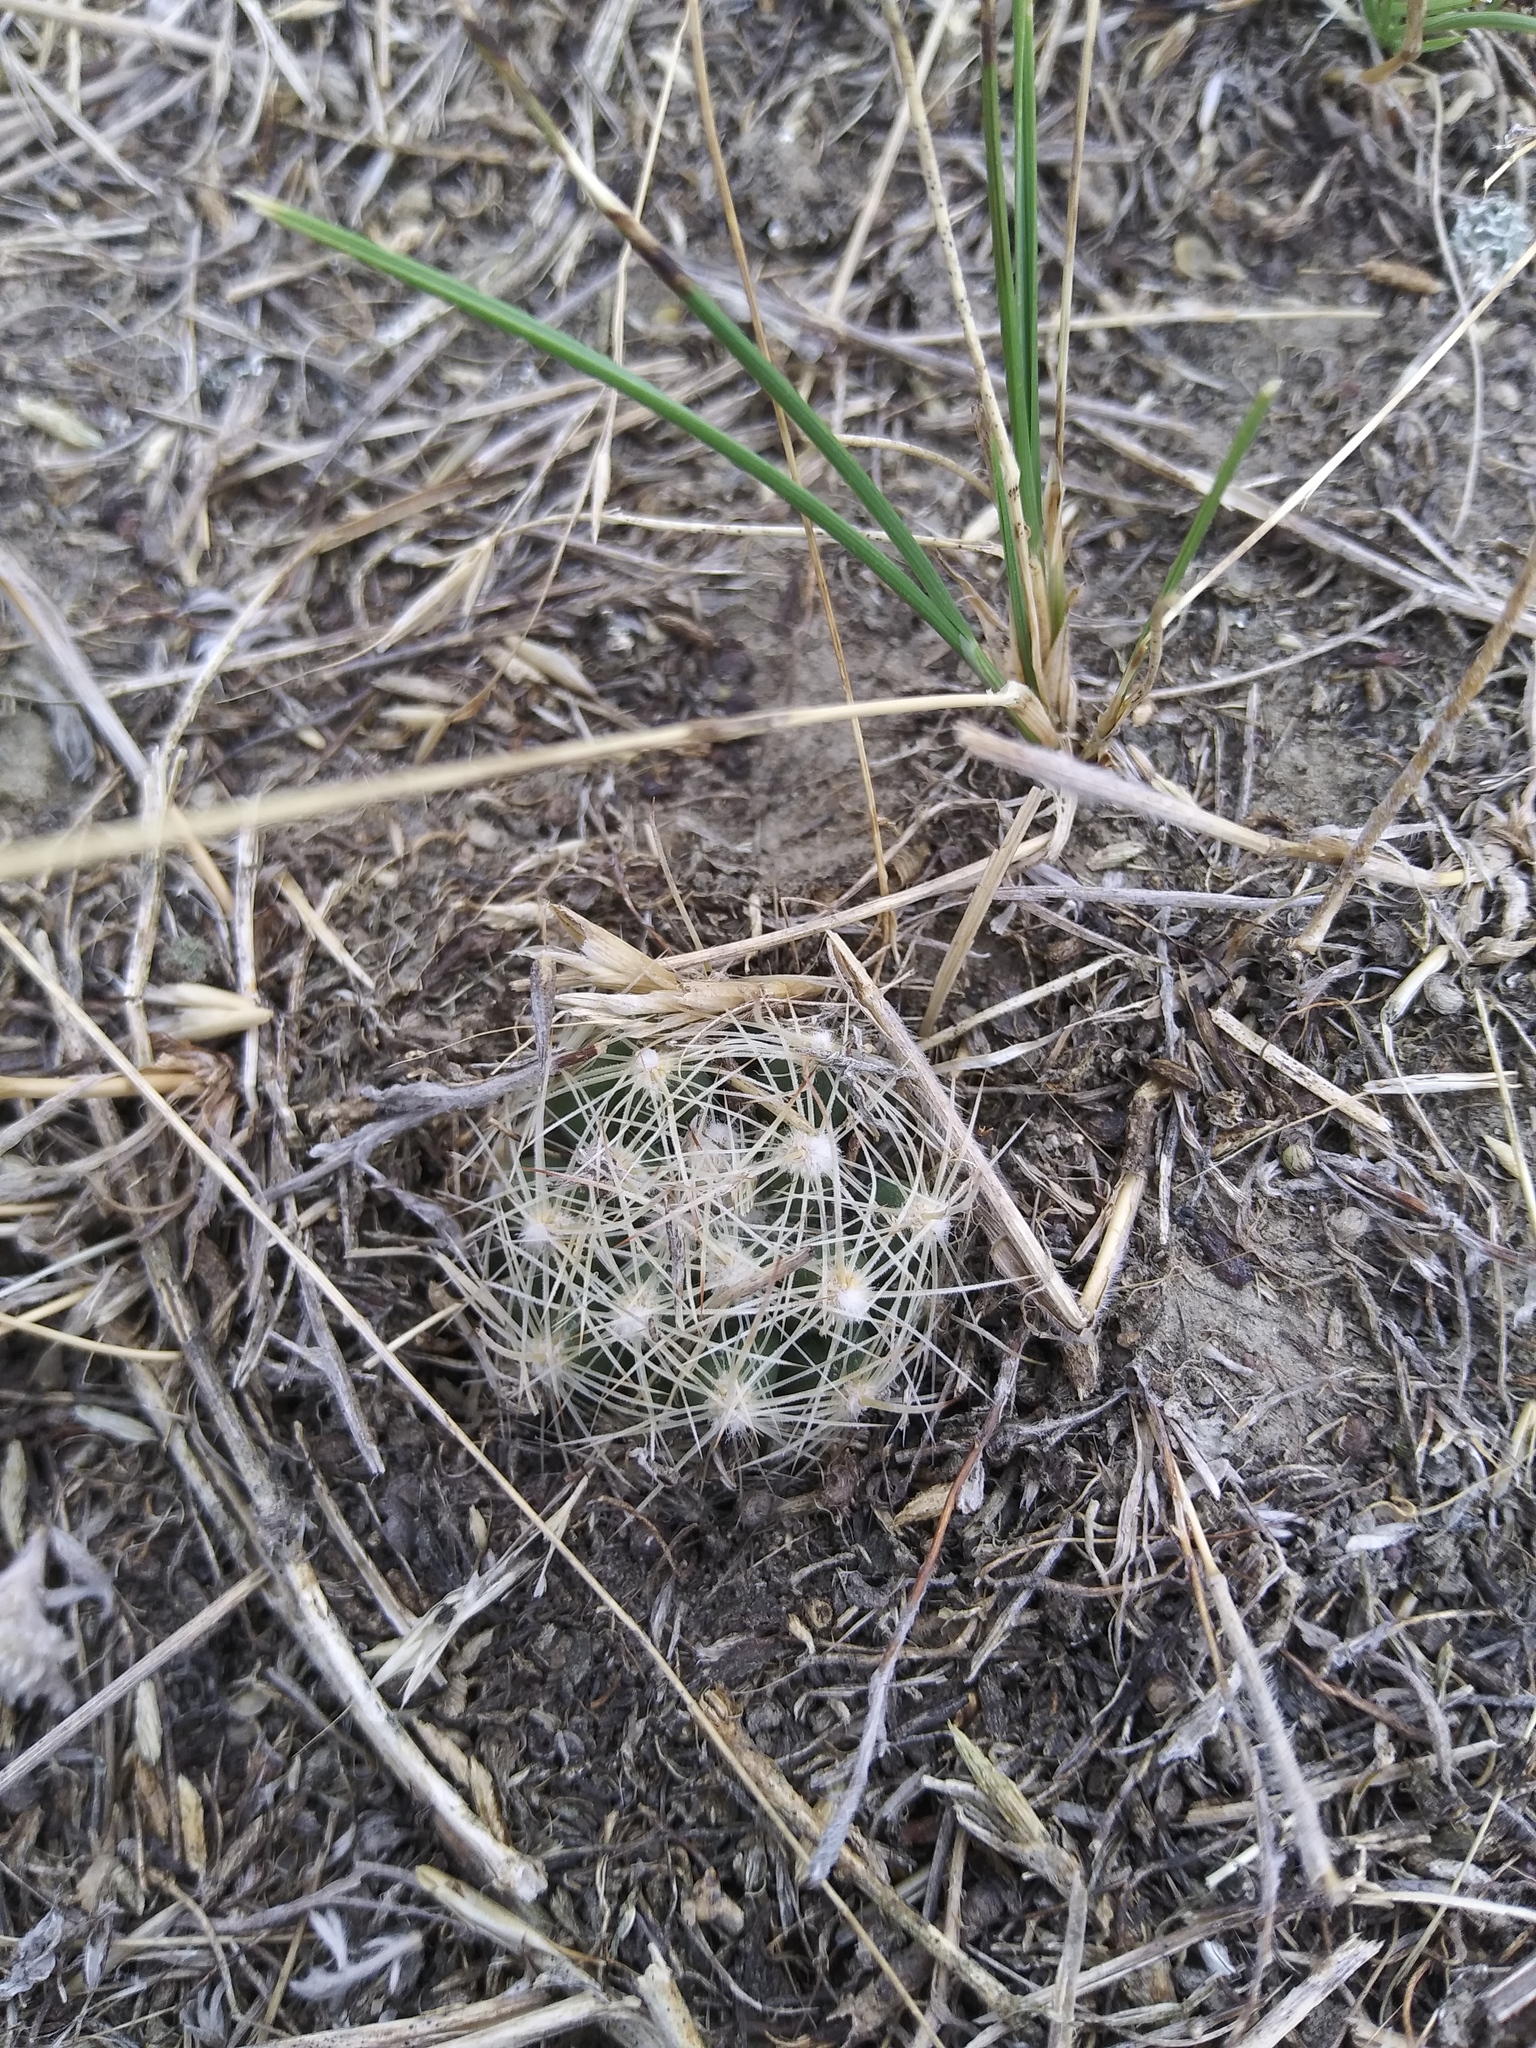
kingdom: Plantae
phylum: Tracheophyta
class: Magnoliopsida
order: Caryophyllales
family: Cactaceae
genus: Pelecyphora
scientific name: Pelecyphora missouriensis
